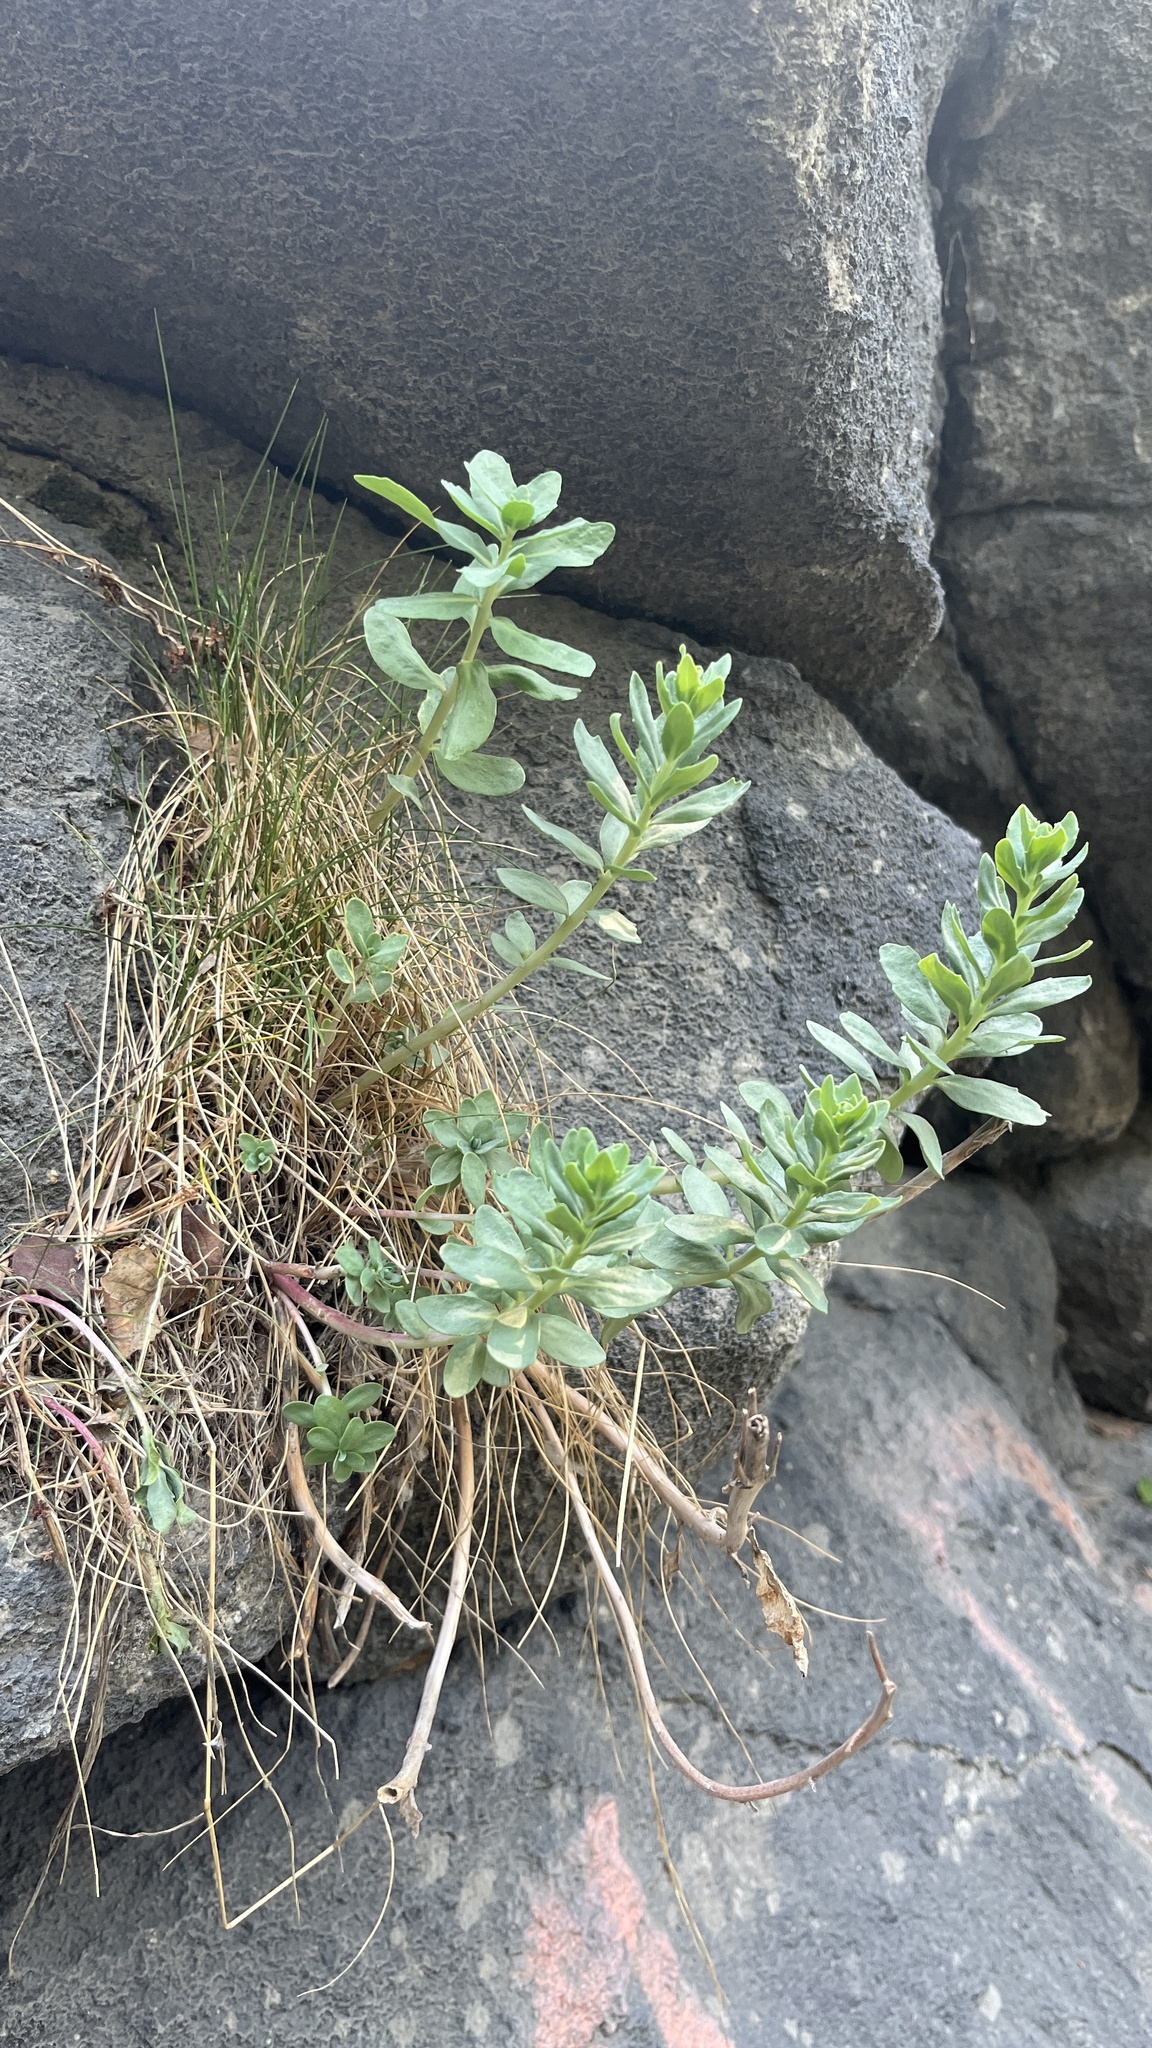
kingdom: Plantae
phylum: Tracheophyta
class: Magnoliopsida
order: Saxifragales
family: Crassulaceae
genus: Hylotelephium
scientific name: Hylotelephium telephium
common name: Live-forever
